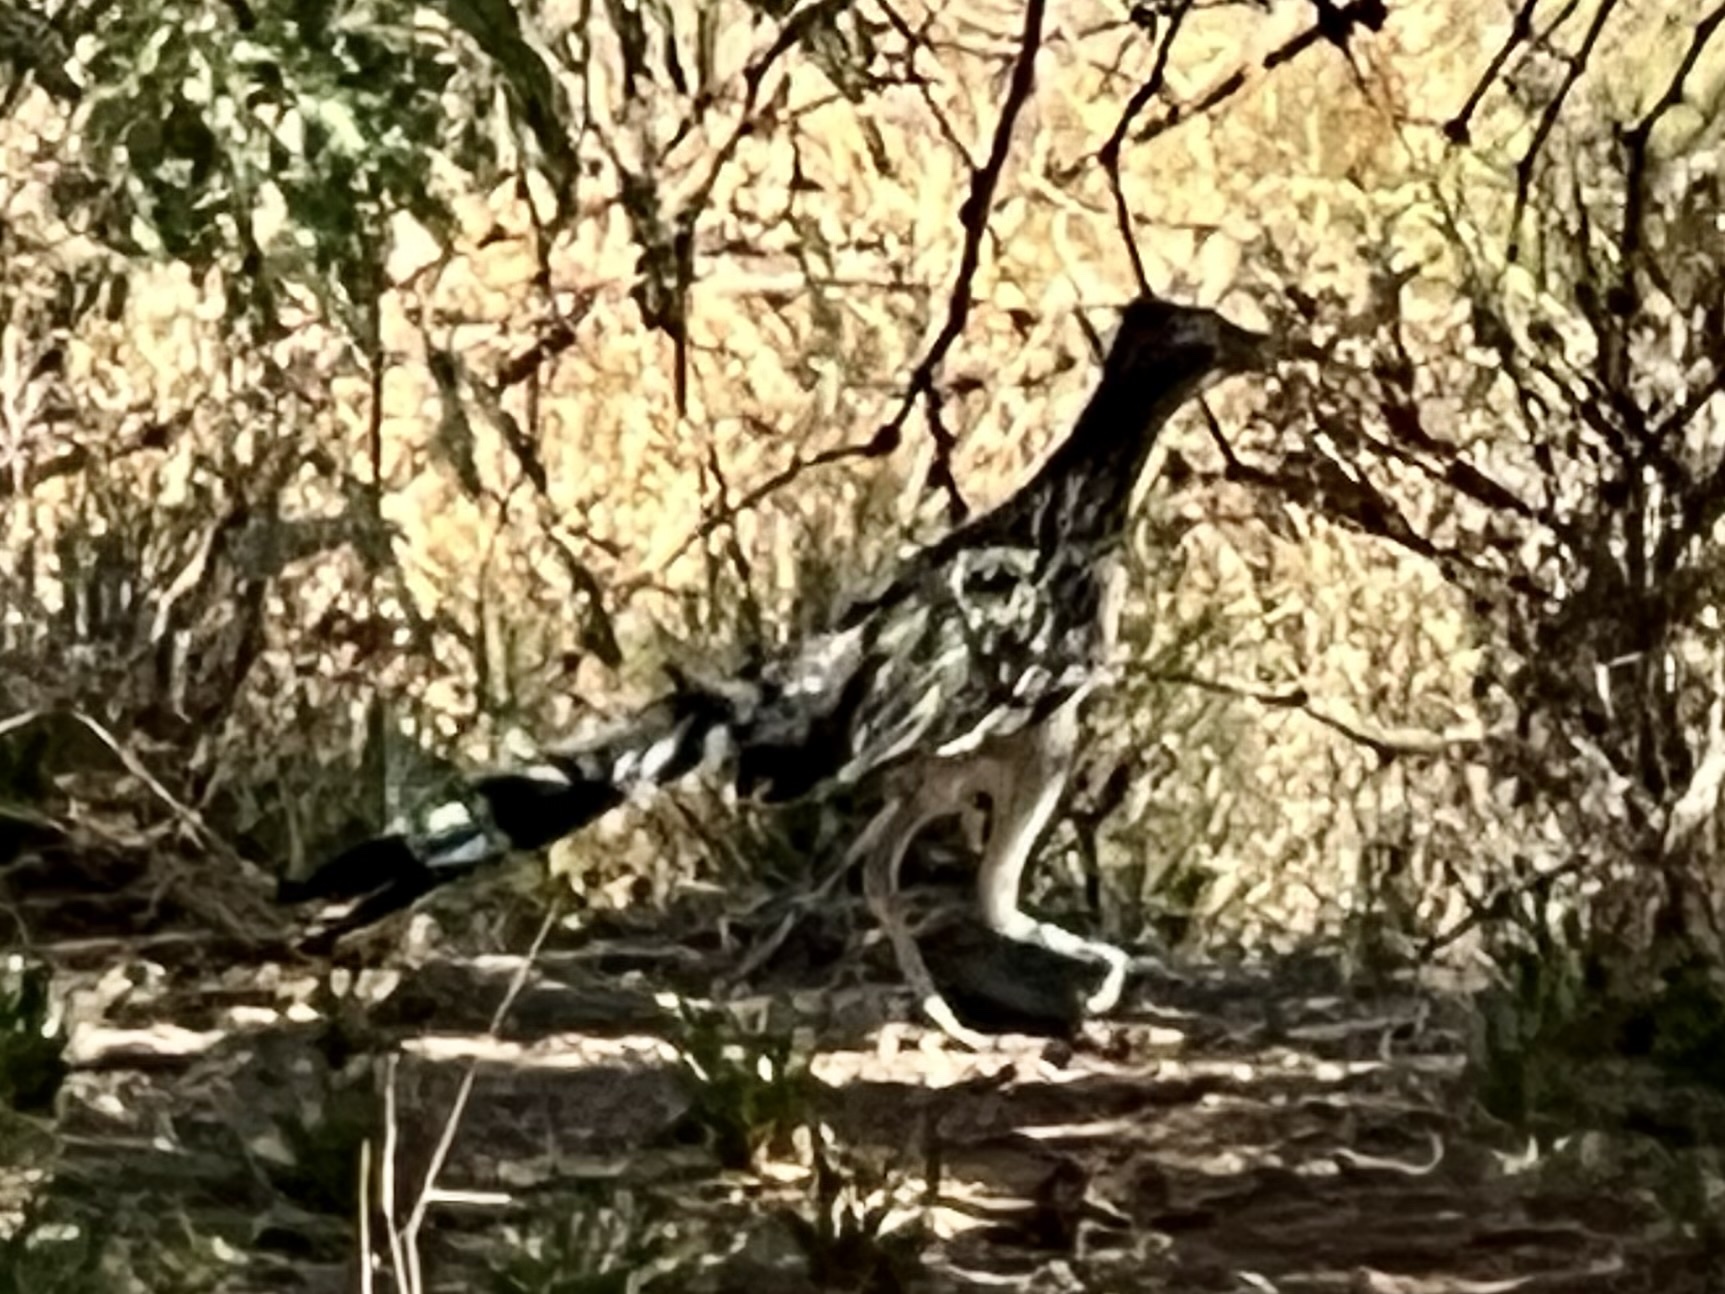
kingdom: Animalia
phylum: Chordata
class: Aves
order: Cuculiformes
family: Cuculidae
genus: Geococcyx
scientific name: Geococcyx californianus
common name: Greater roadrunner
